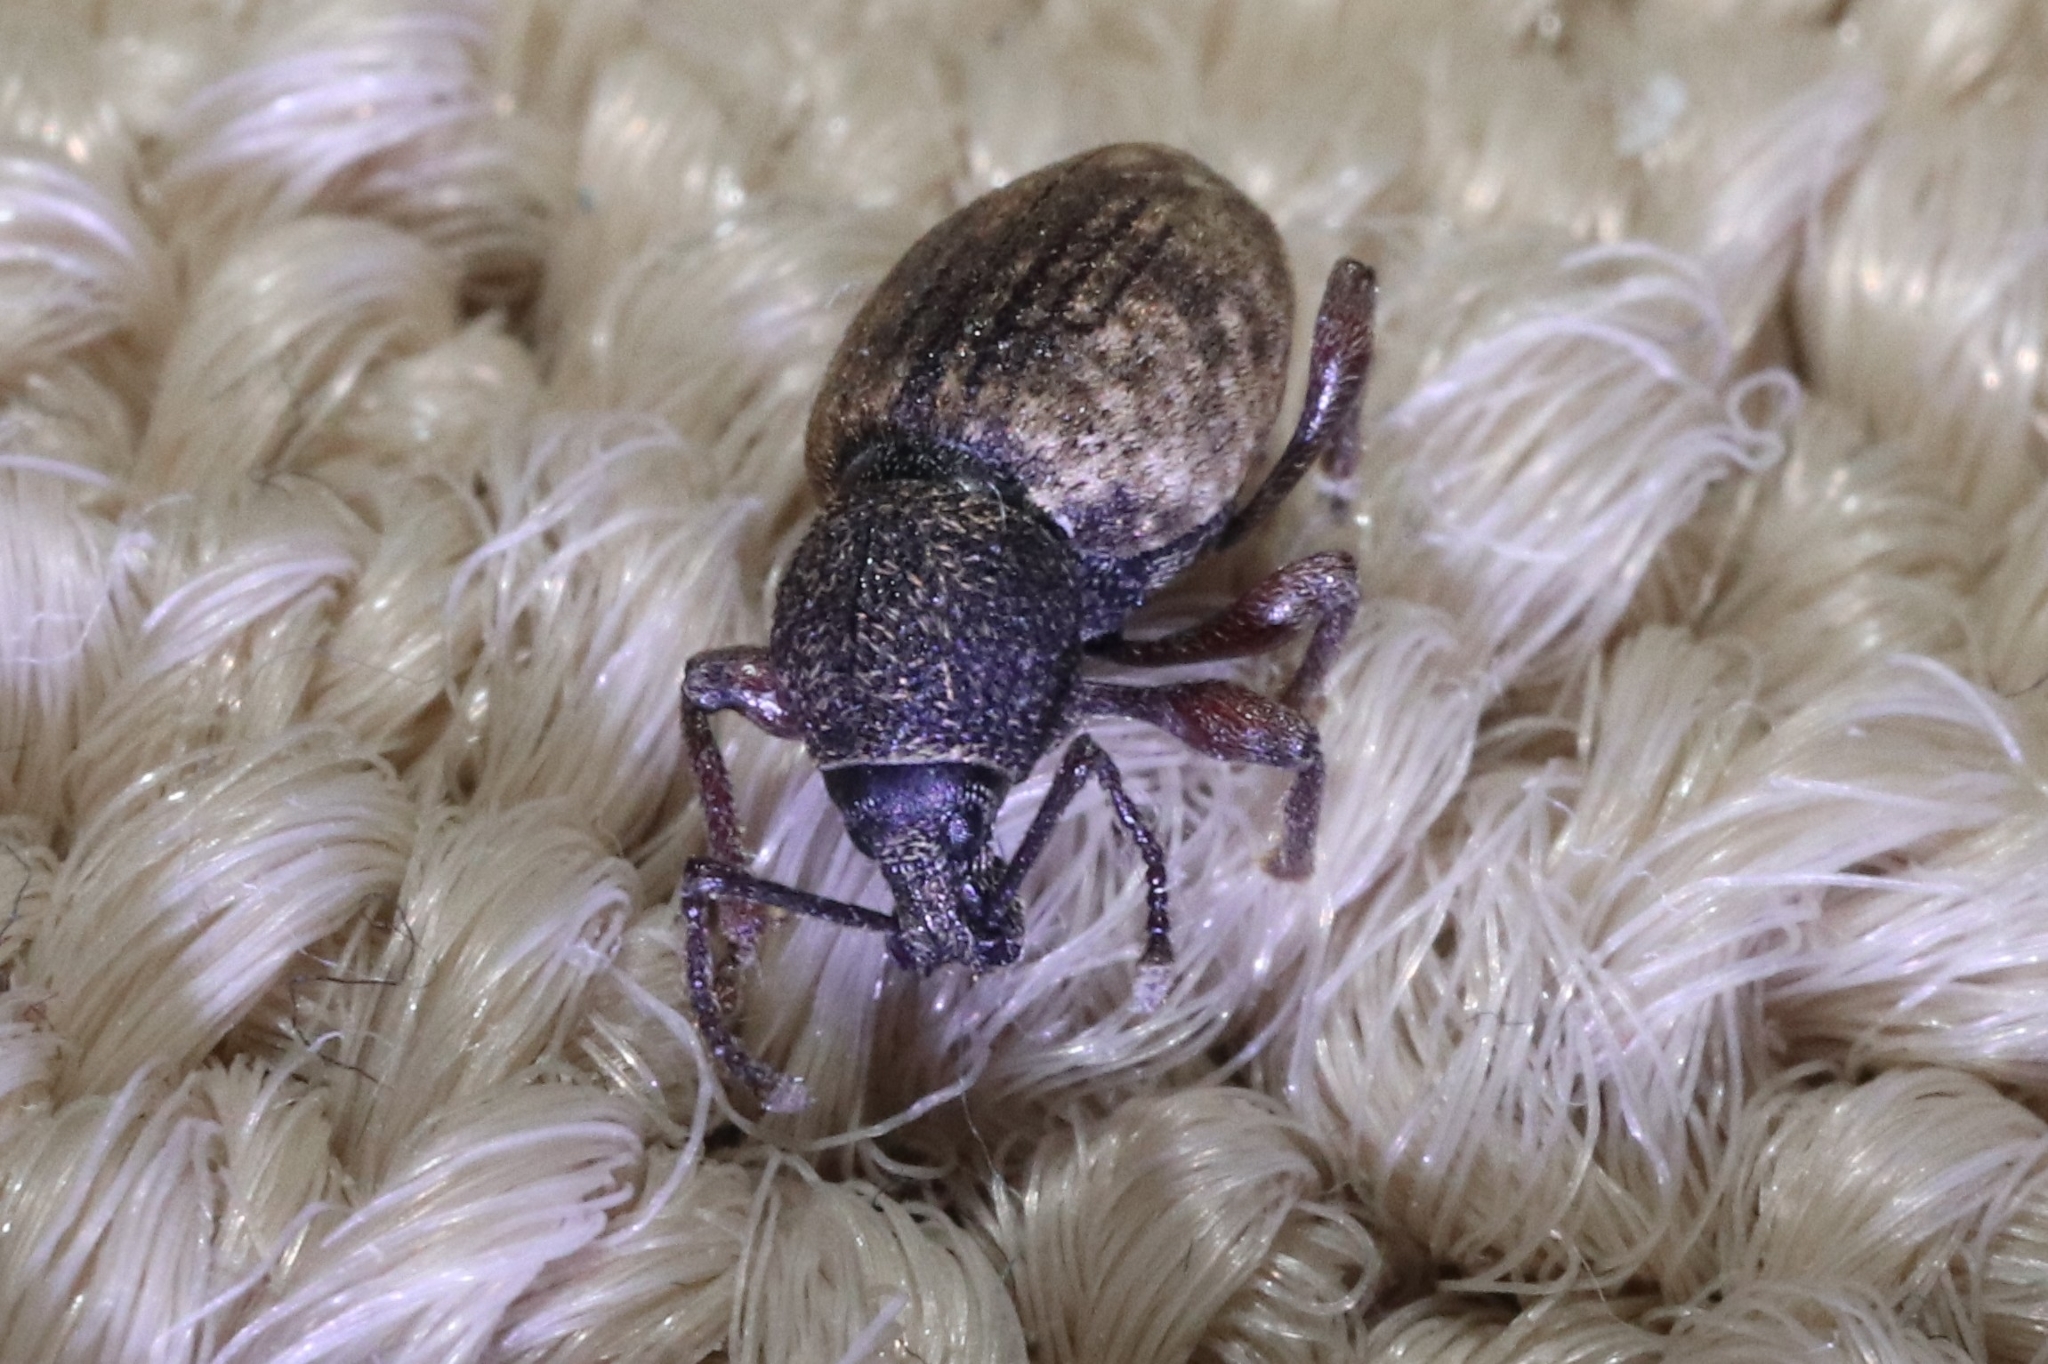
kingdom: Animalia
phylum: Arthropoda
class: Insecta
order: Coleoptera
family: Curculionidae
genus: Otiorhynchus
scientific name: Otiorhynchus raucus
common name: Weevil
